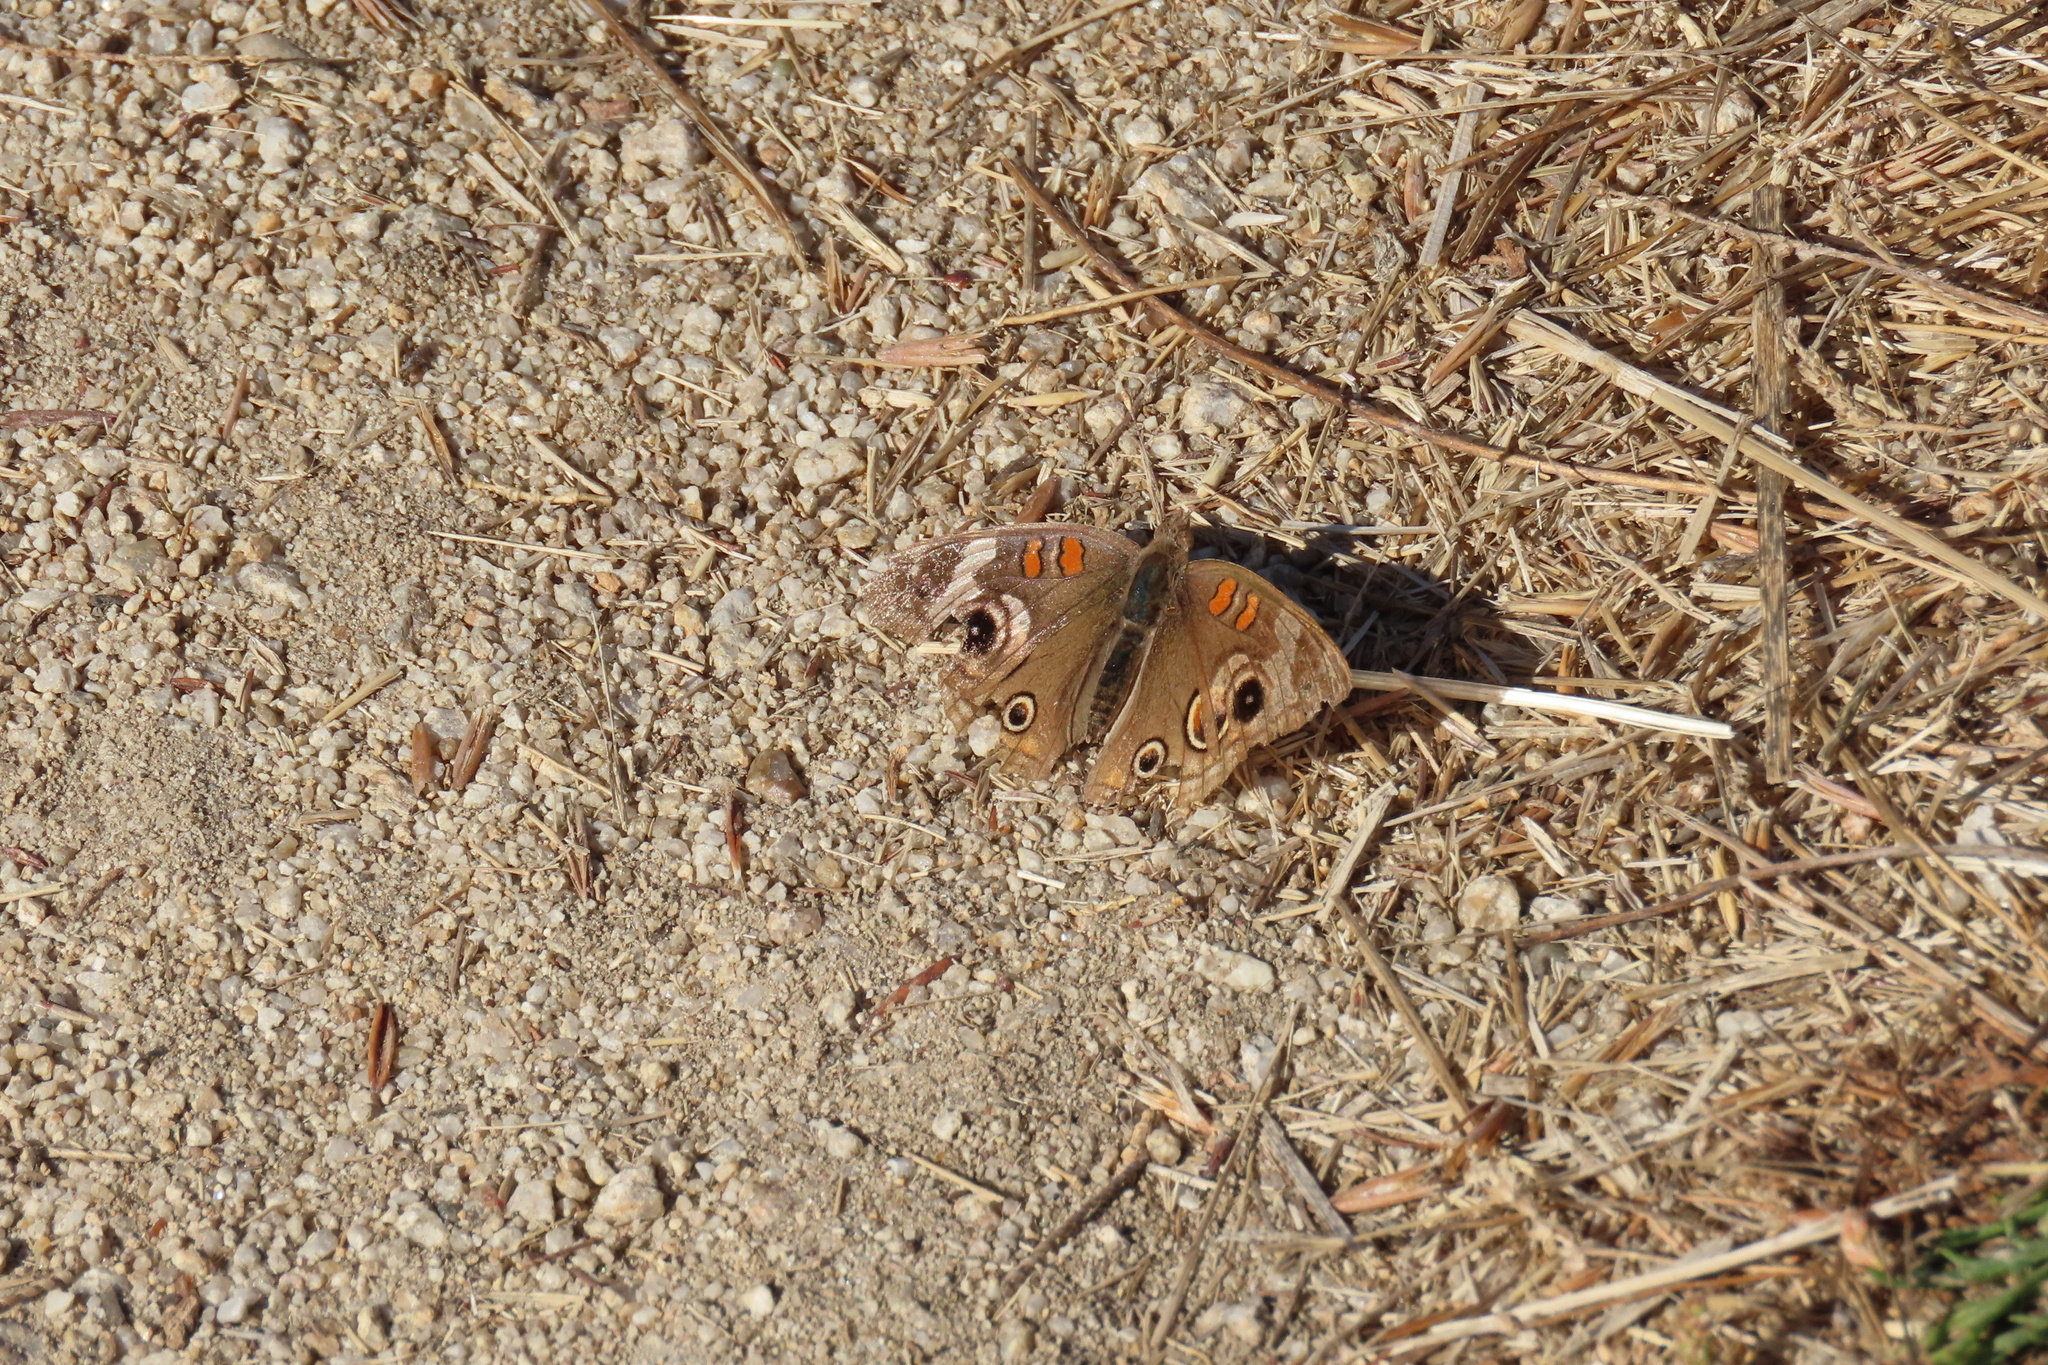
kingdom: Animalia
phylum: Arthropoda
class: Insecta
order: Lepidoptera
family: Nymphalidae
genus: Junonia
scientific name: Junonia grisea
